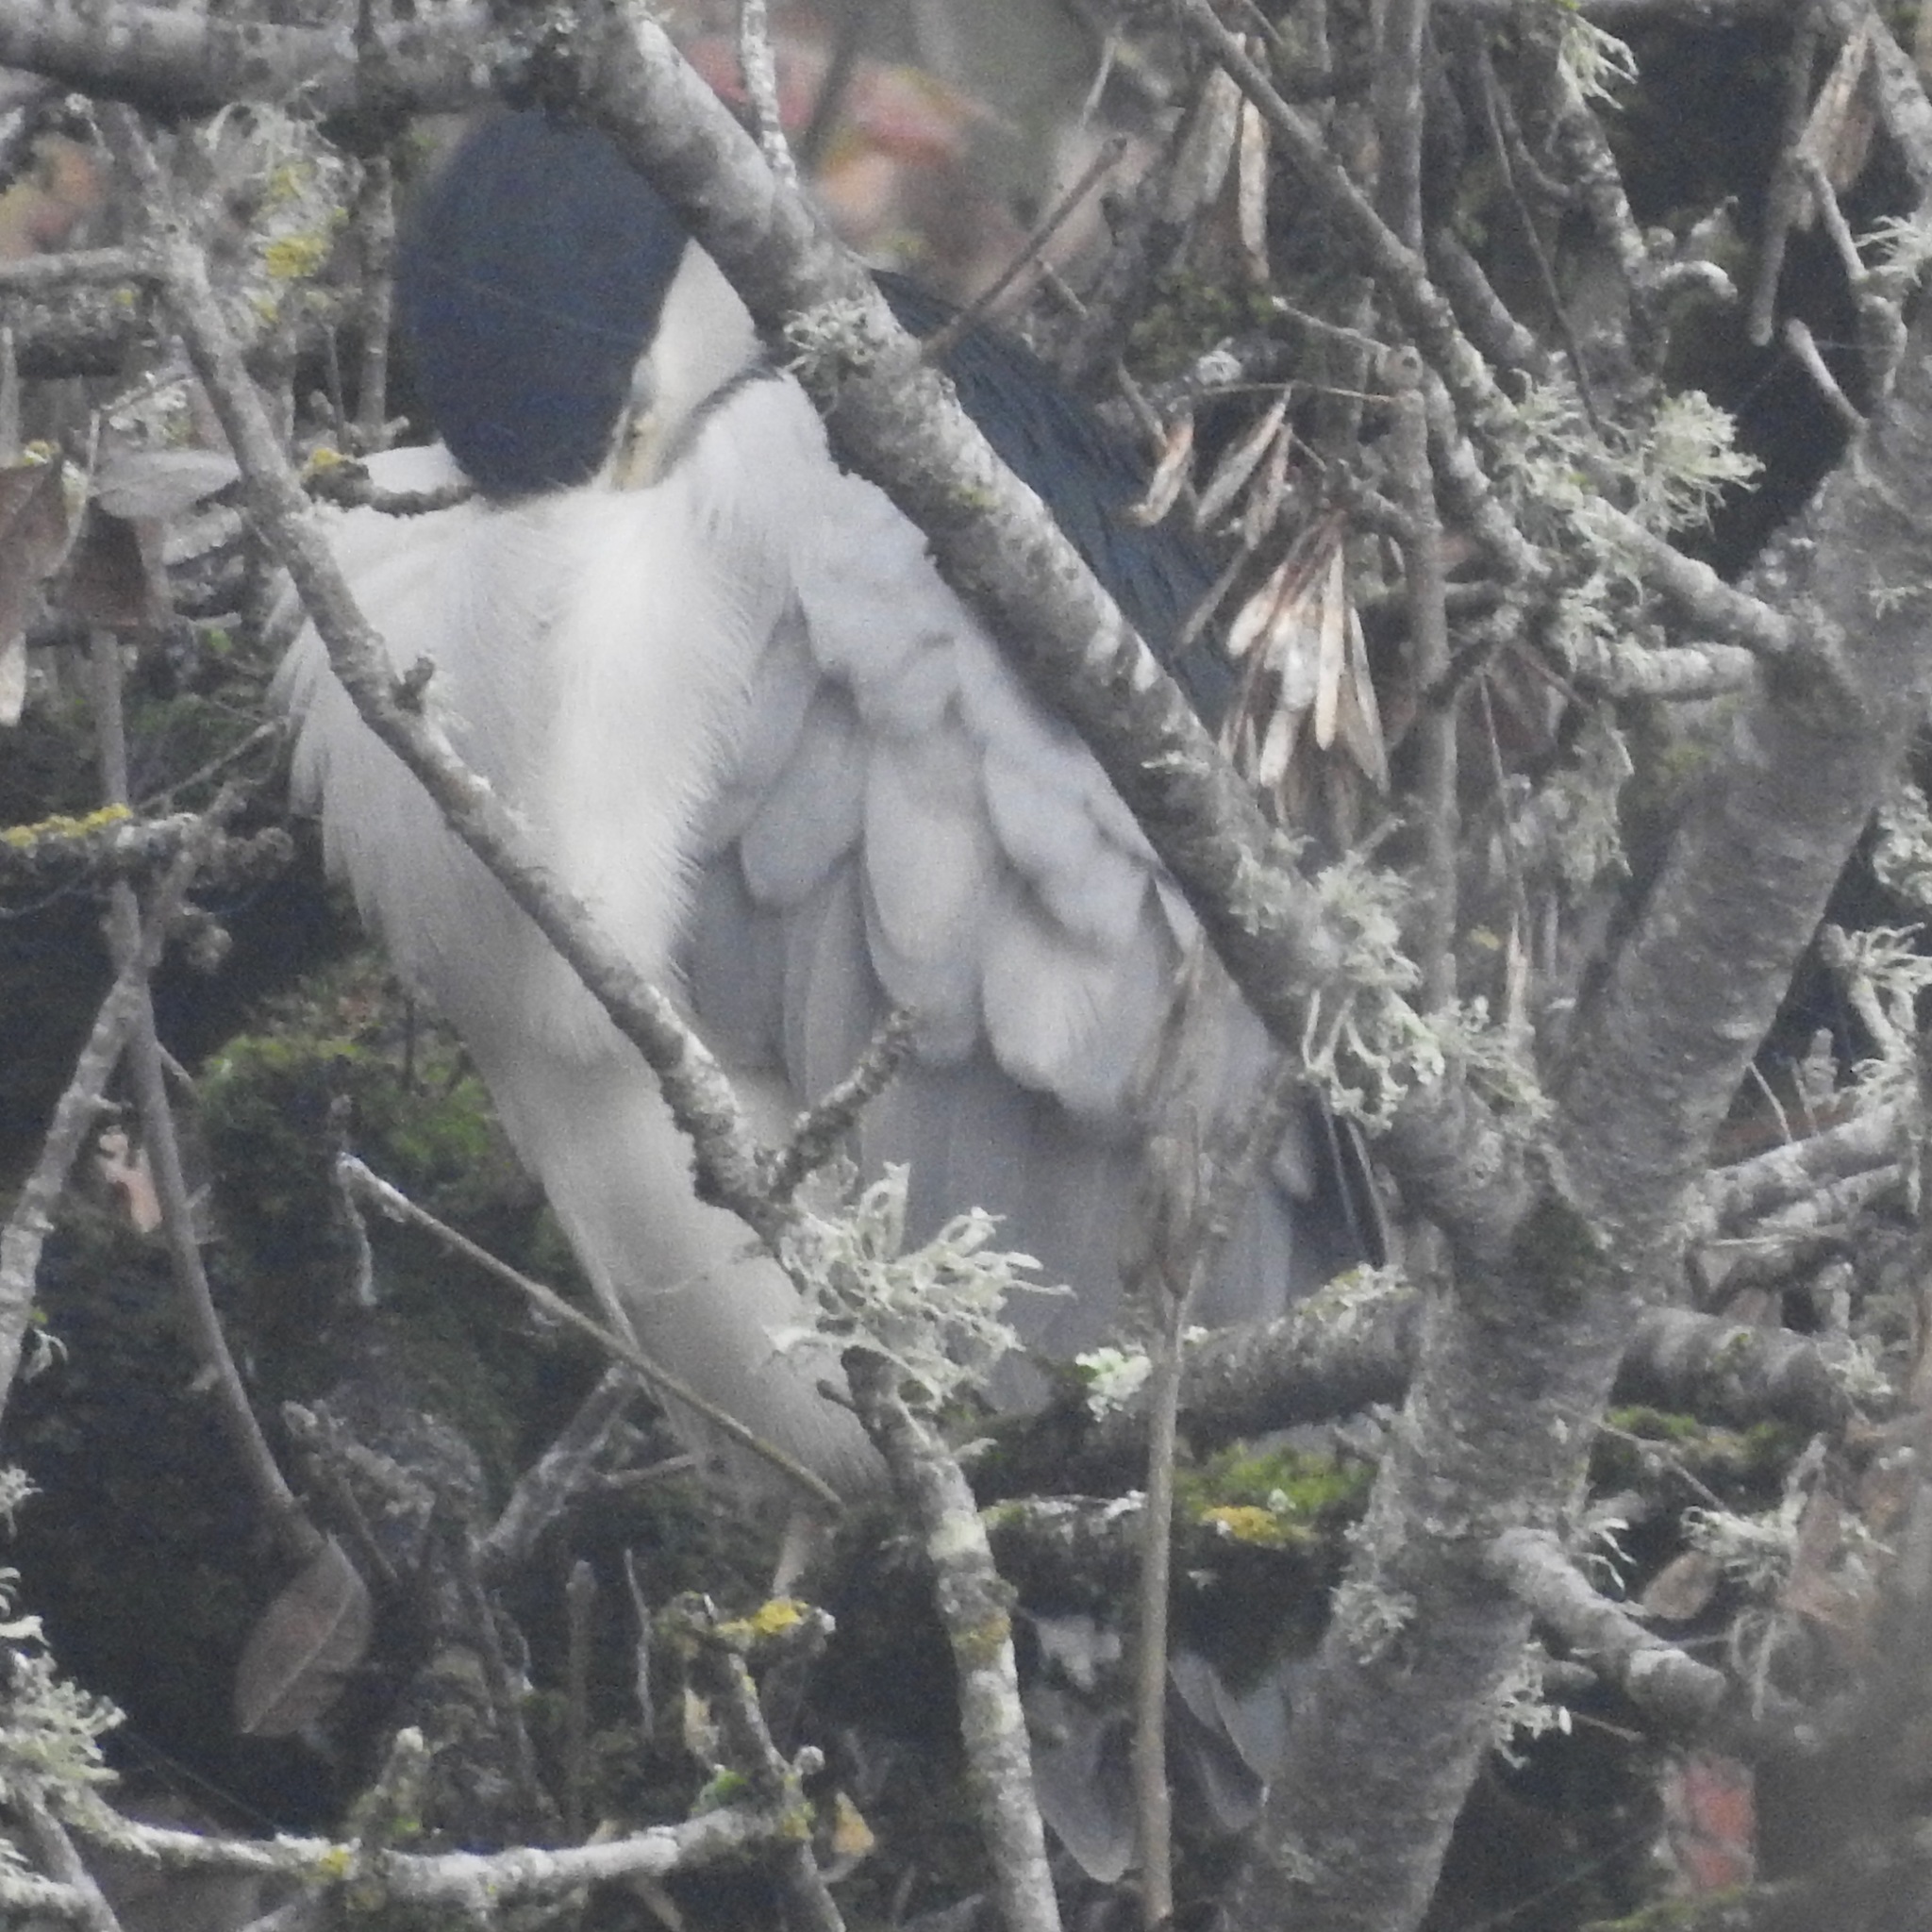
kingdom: Animalia
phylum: Chordata
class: Aves
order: Pelecaniformes
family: Ardeidae
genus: Nycticorax
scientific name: Nycticorax nycticorax
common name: Black-crowned night heron
